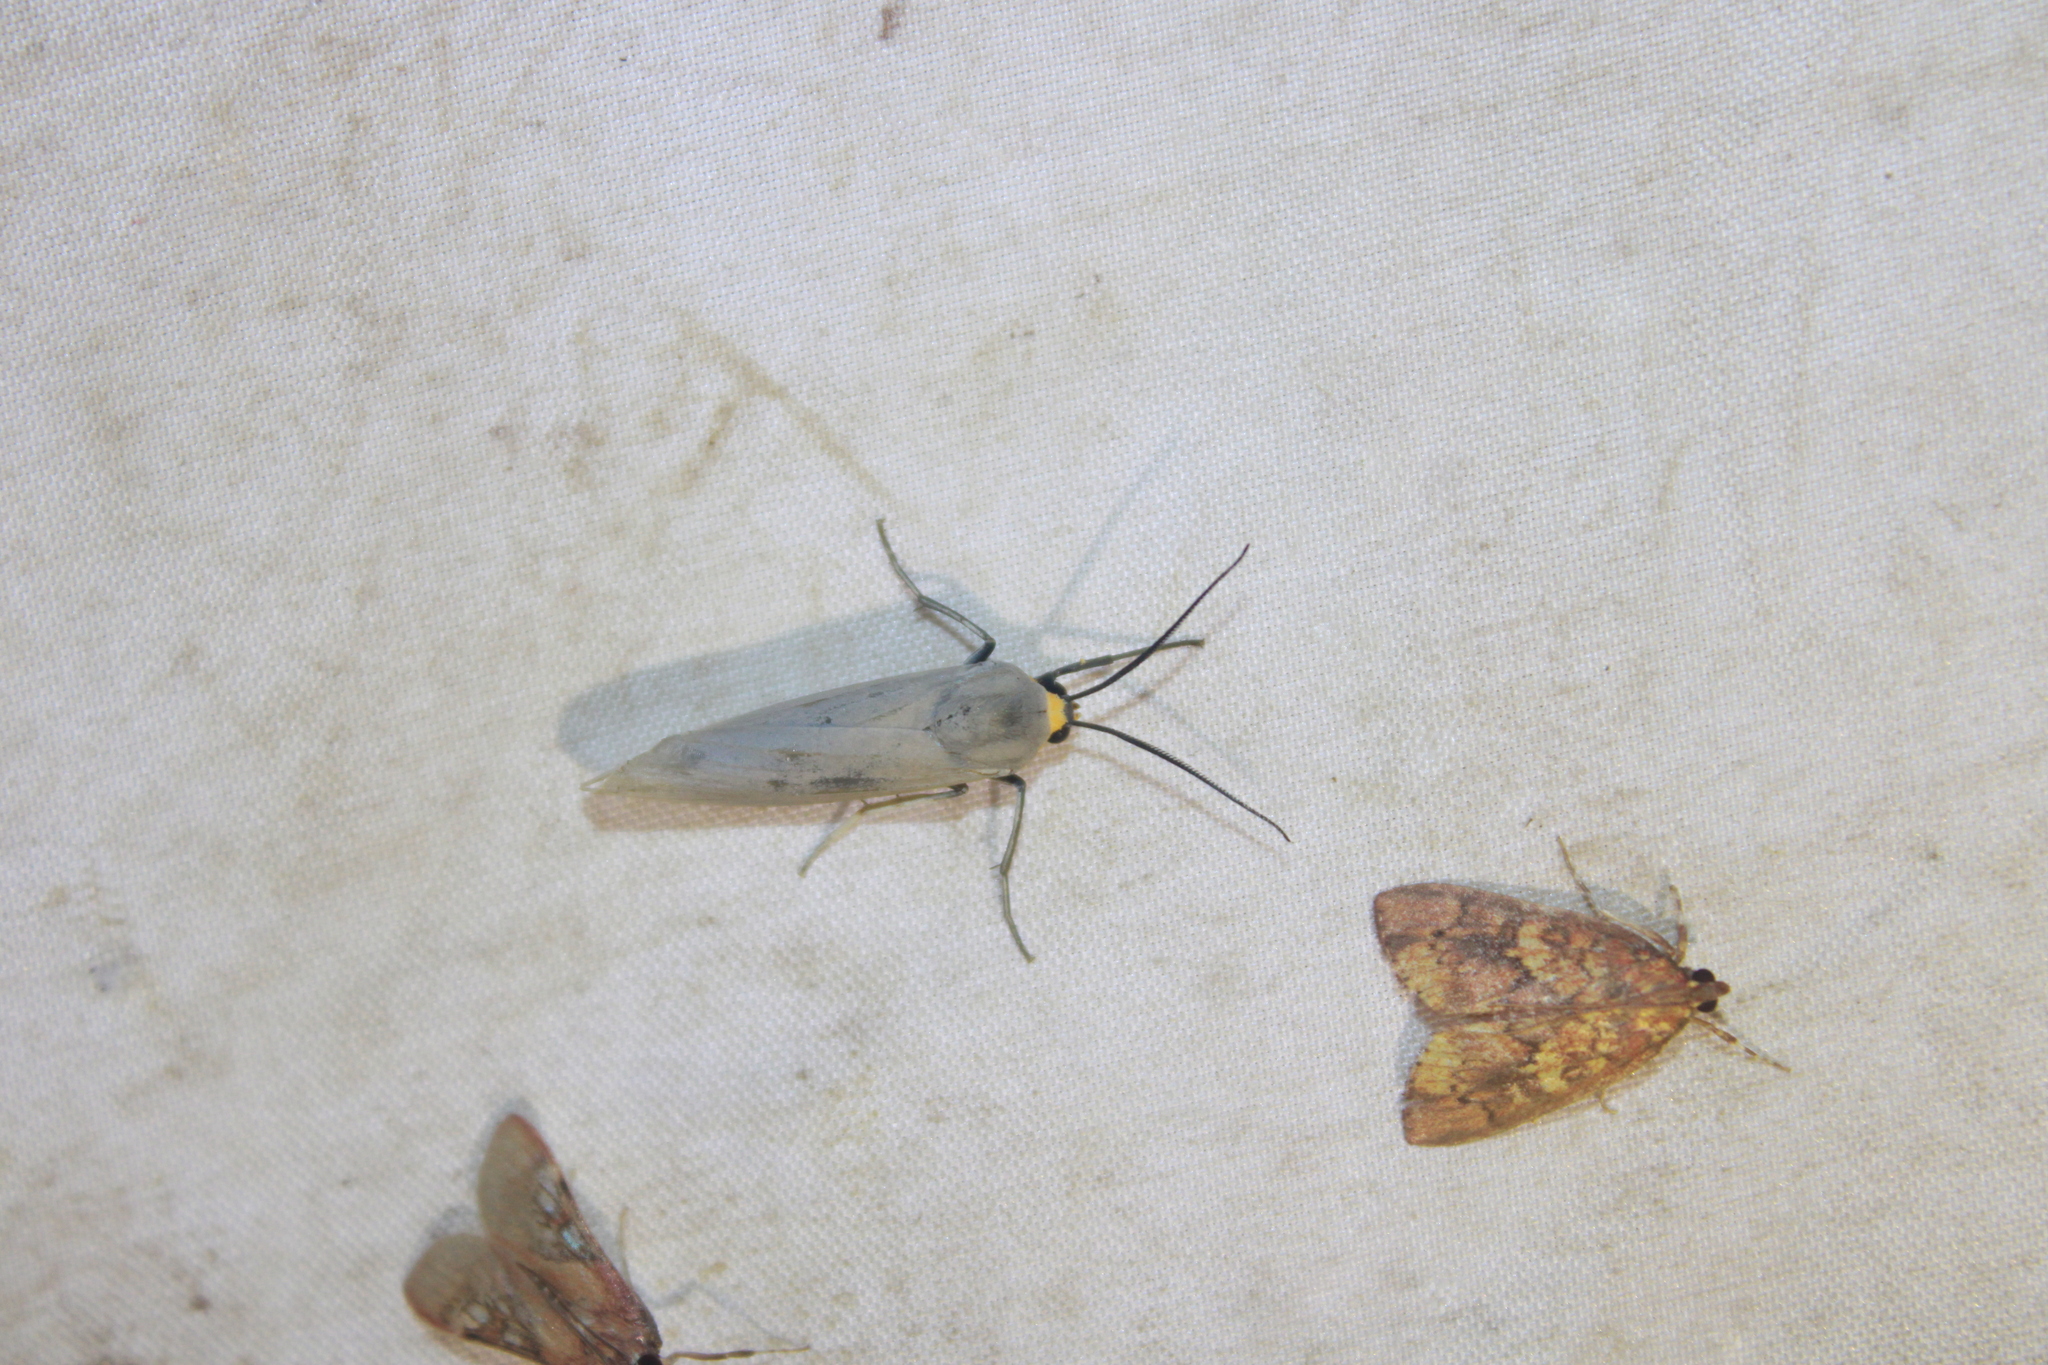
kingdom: Animalia
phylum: Arthropoda
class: Insecta
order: Lepidoptera
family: Erebidae
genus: Lymire
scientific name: Lymire edwardsii
